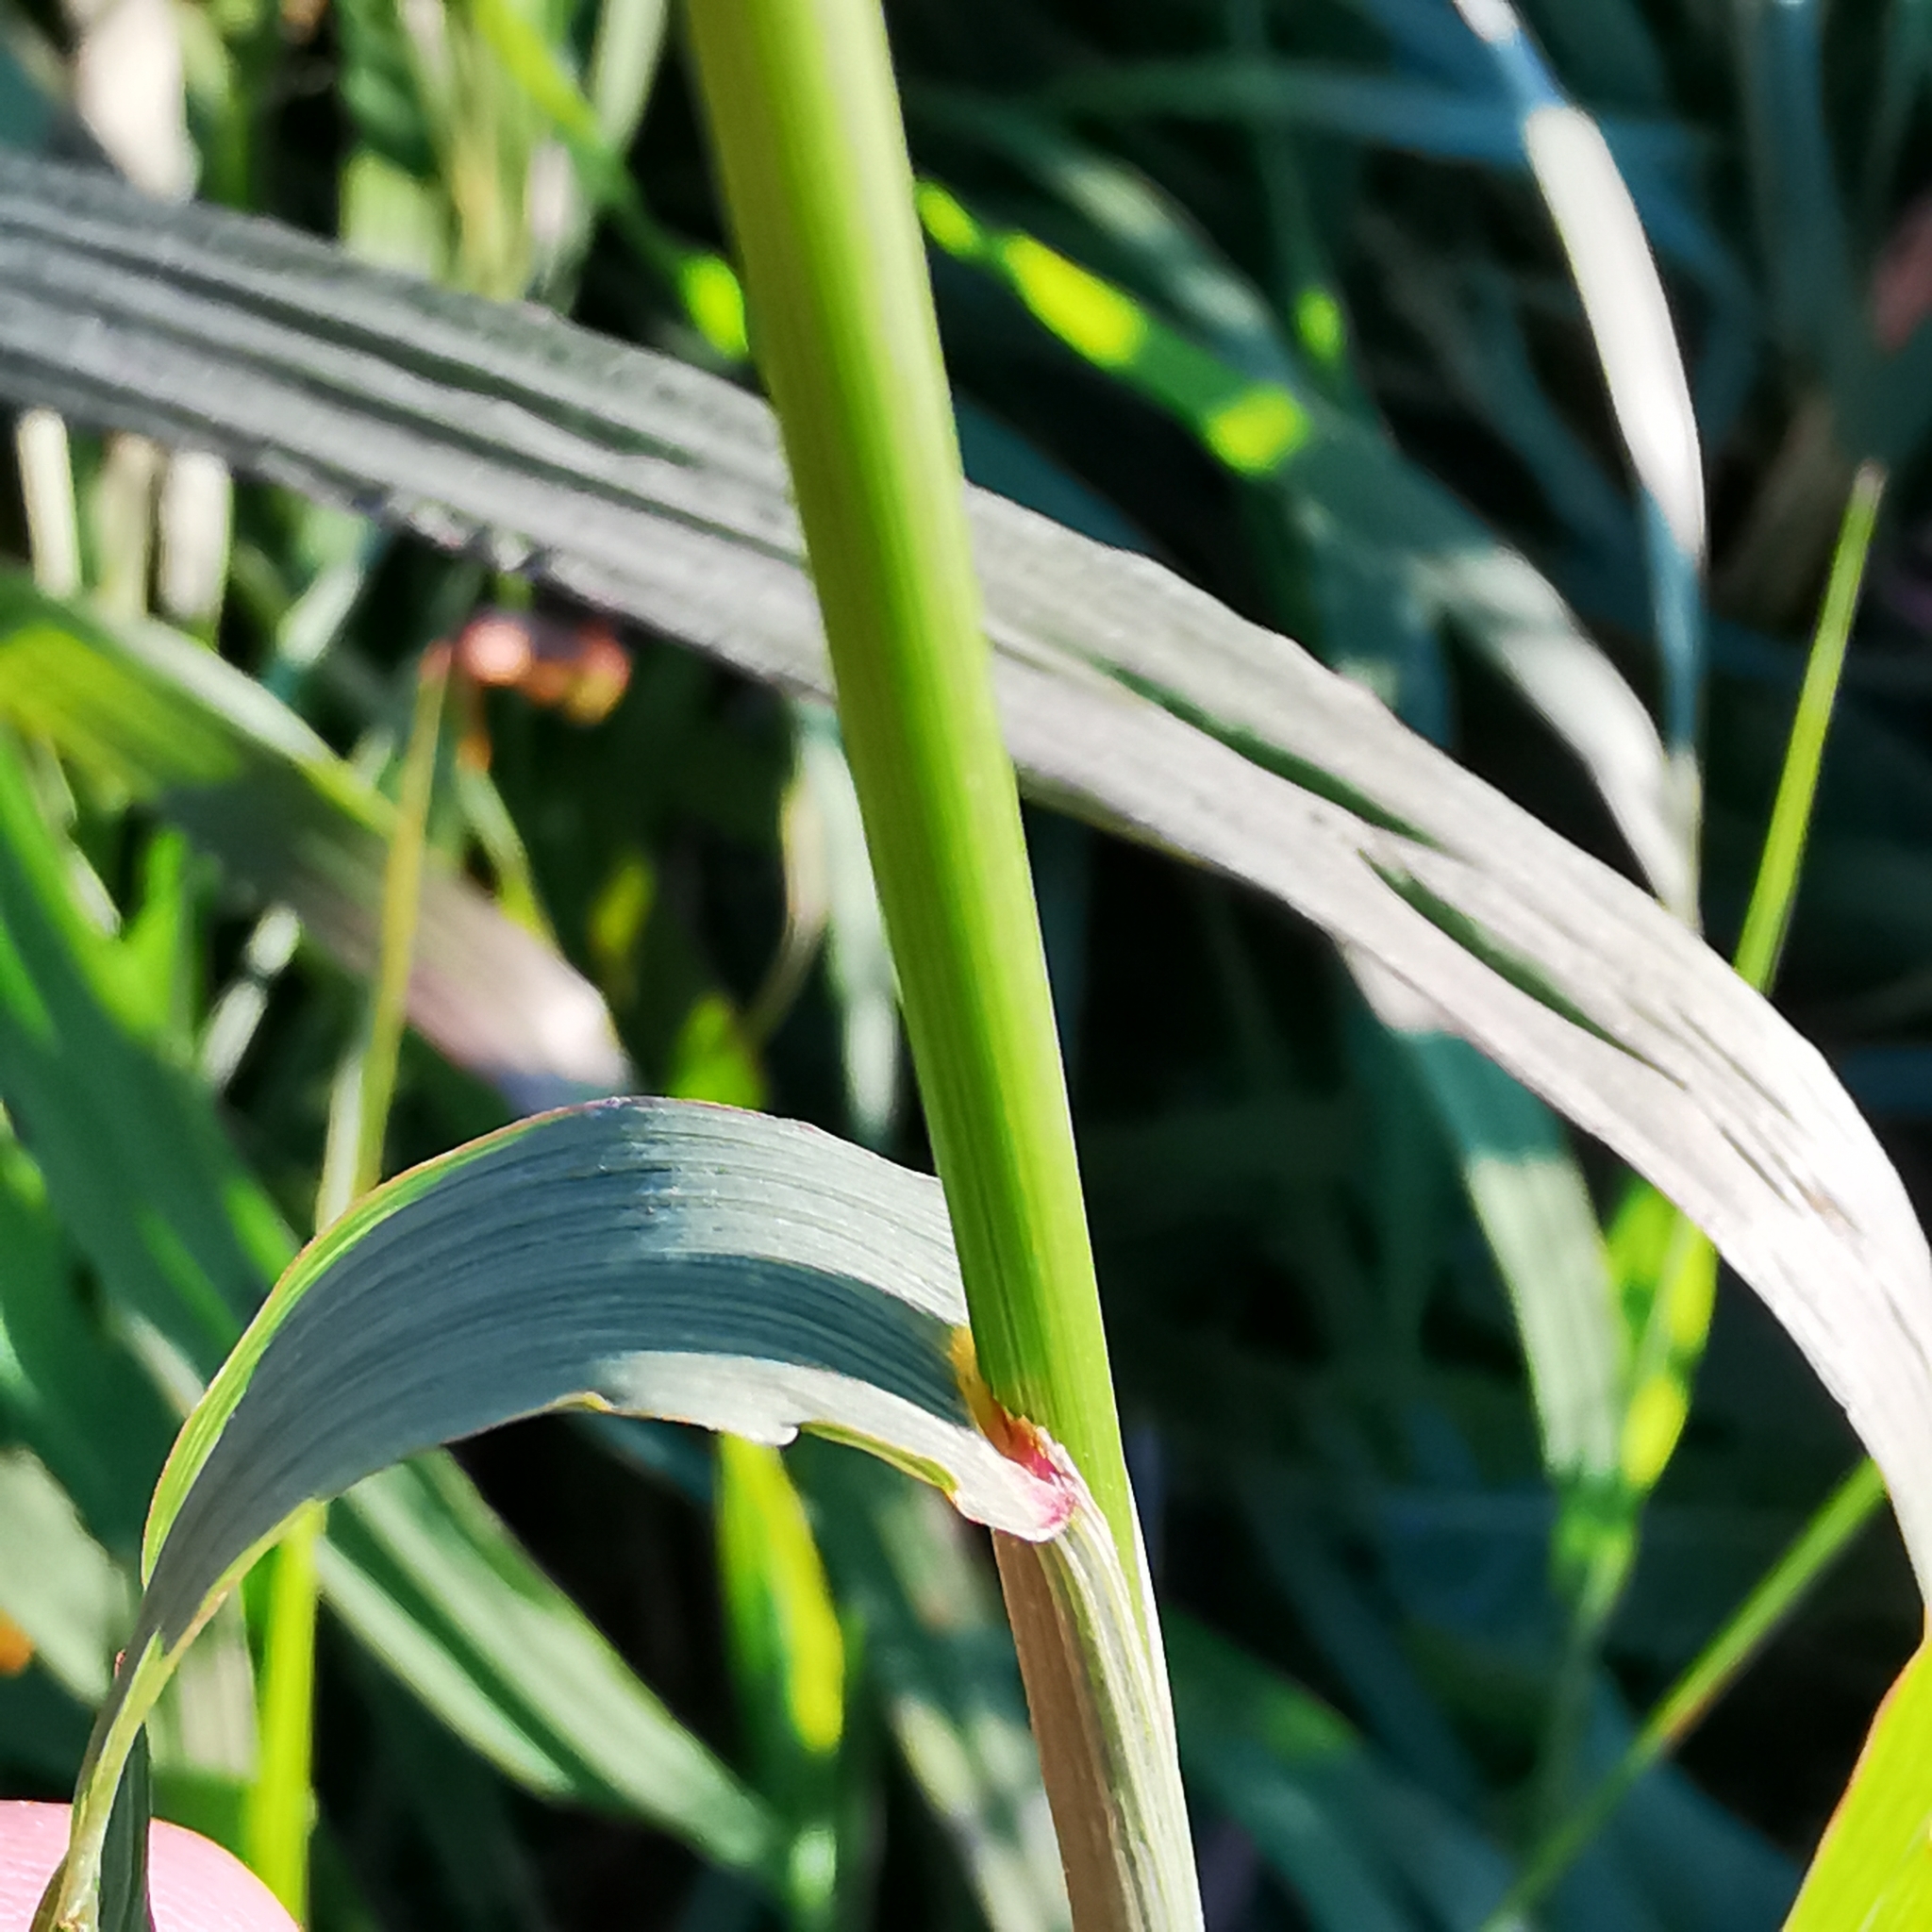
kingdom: Plantae
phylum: Tracheophyta
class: Liliopsida
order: Poales
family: Poaceae
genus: Bromus
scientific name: Bromus inermis
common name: Smooth brome
